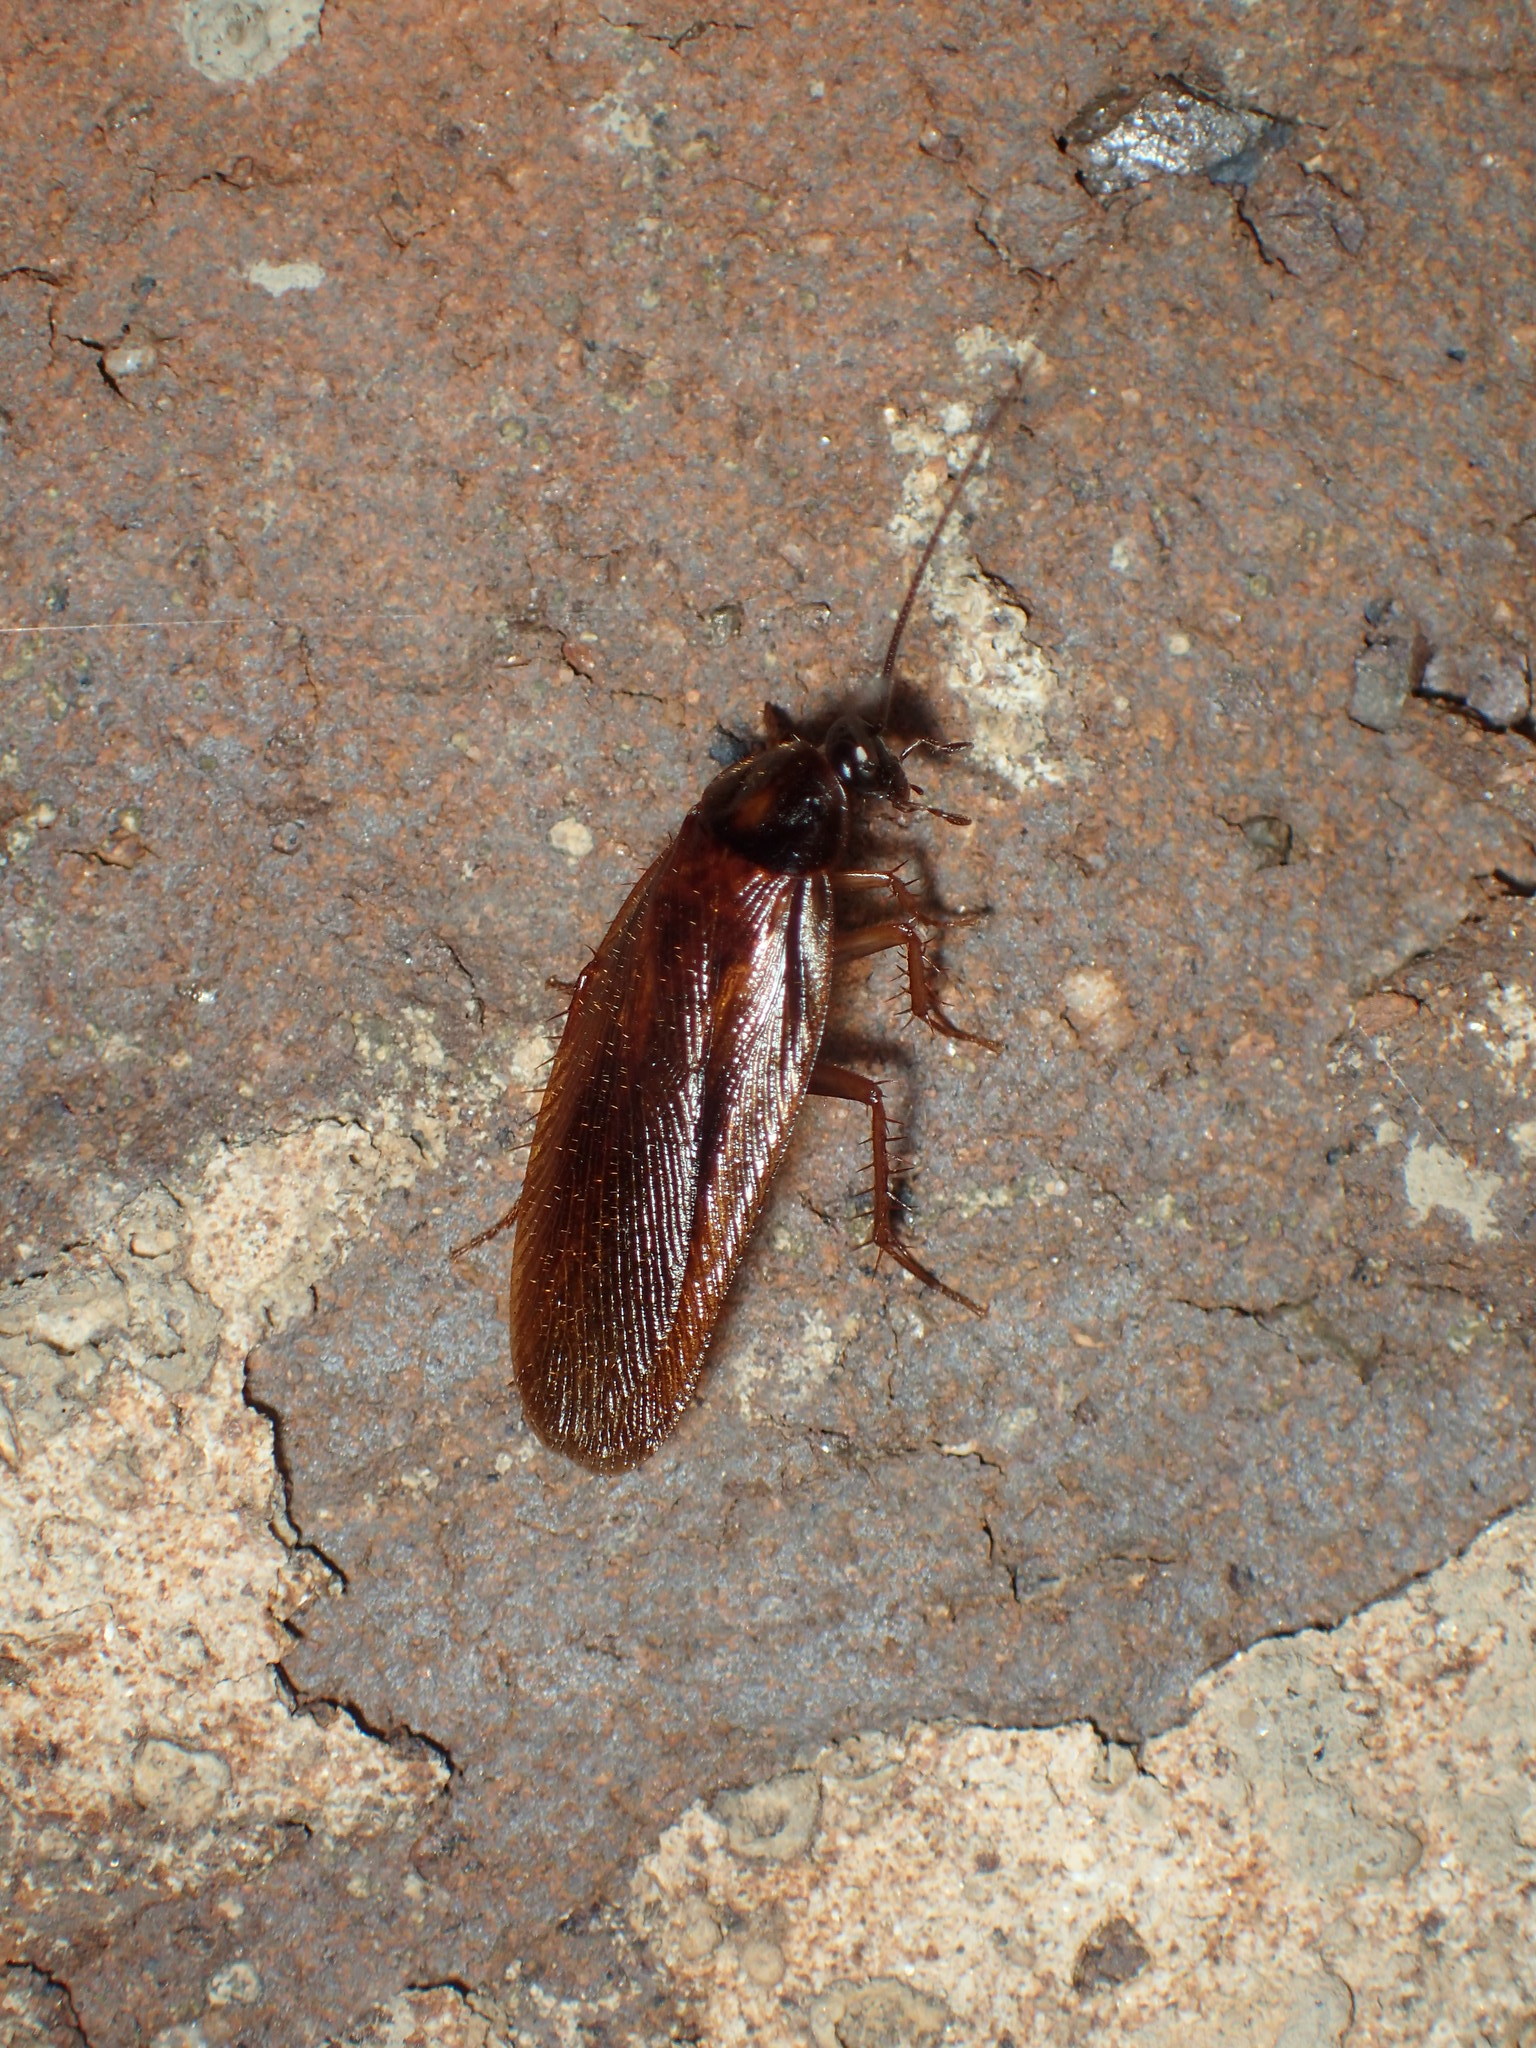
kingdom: Animalia
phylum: Arthropoda
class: Insecta
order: Blattodea
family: Ectobiidae
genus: Parcoblatta
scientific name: Parcoblatta bolliana
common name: Boll's wood cockroach
